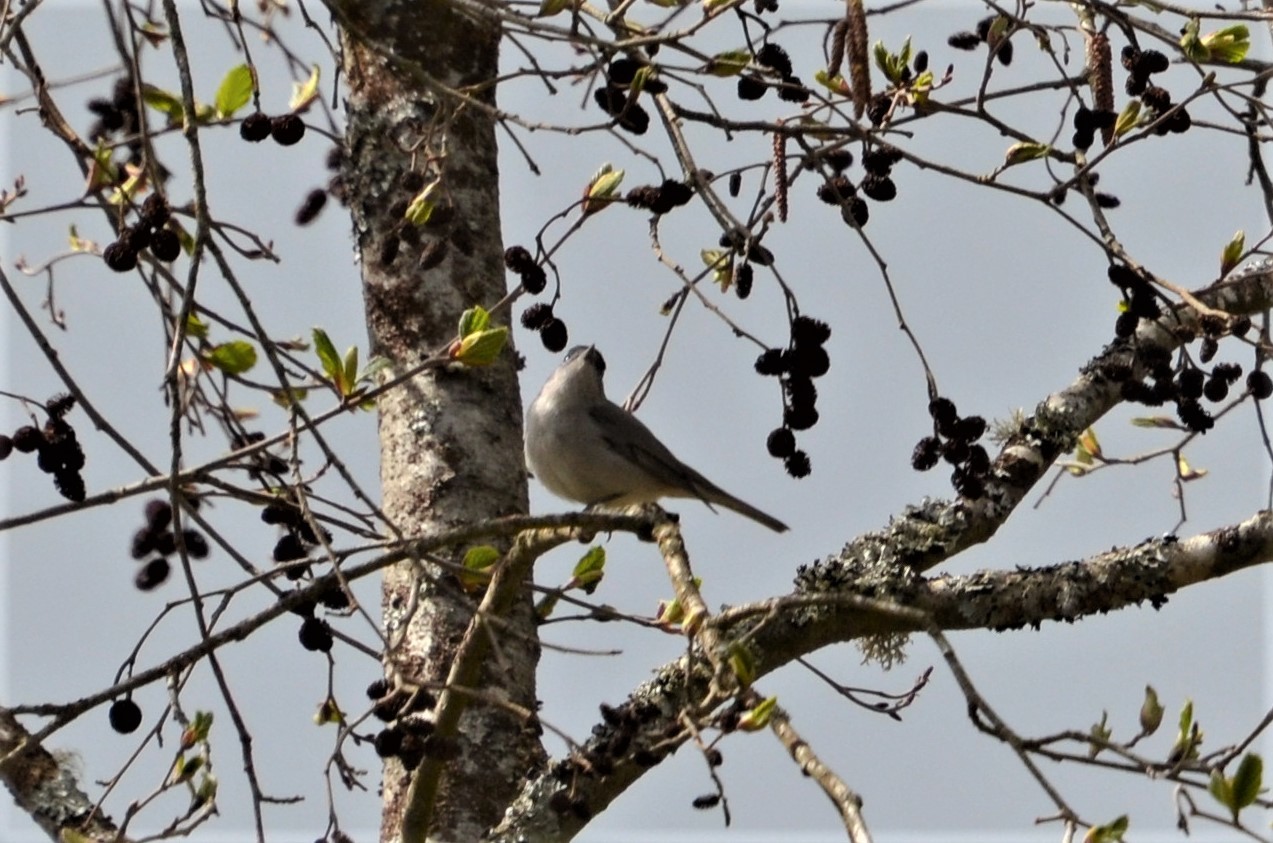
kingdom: Animalia
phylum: Chordata
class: Aves
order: Passeriformes
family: Sylviidae
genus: Sylvia
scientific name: Sylvia atricapilla
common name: Eurasian blackcap
